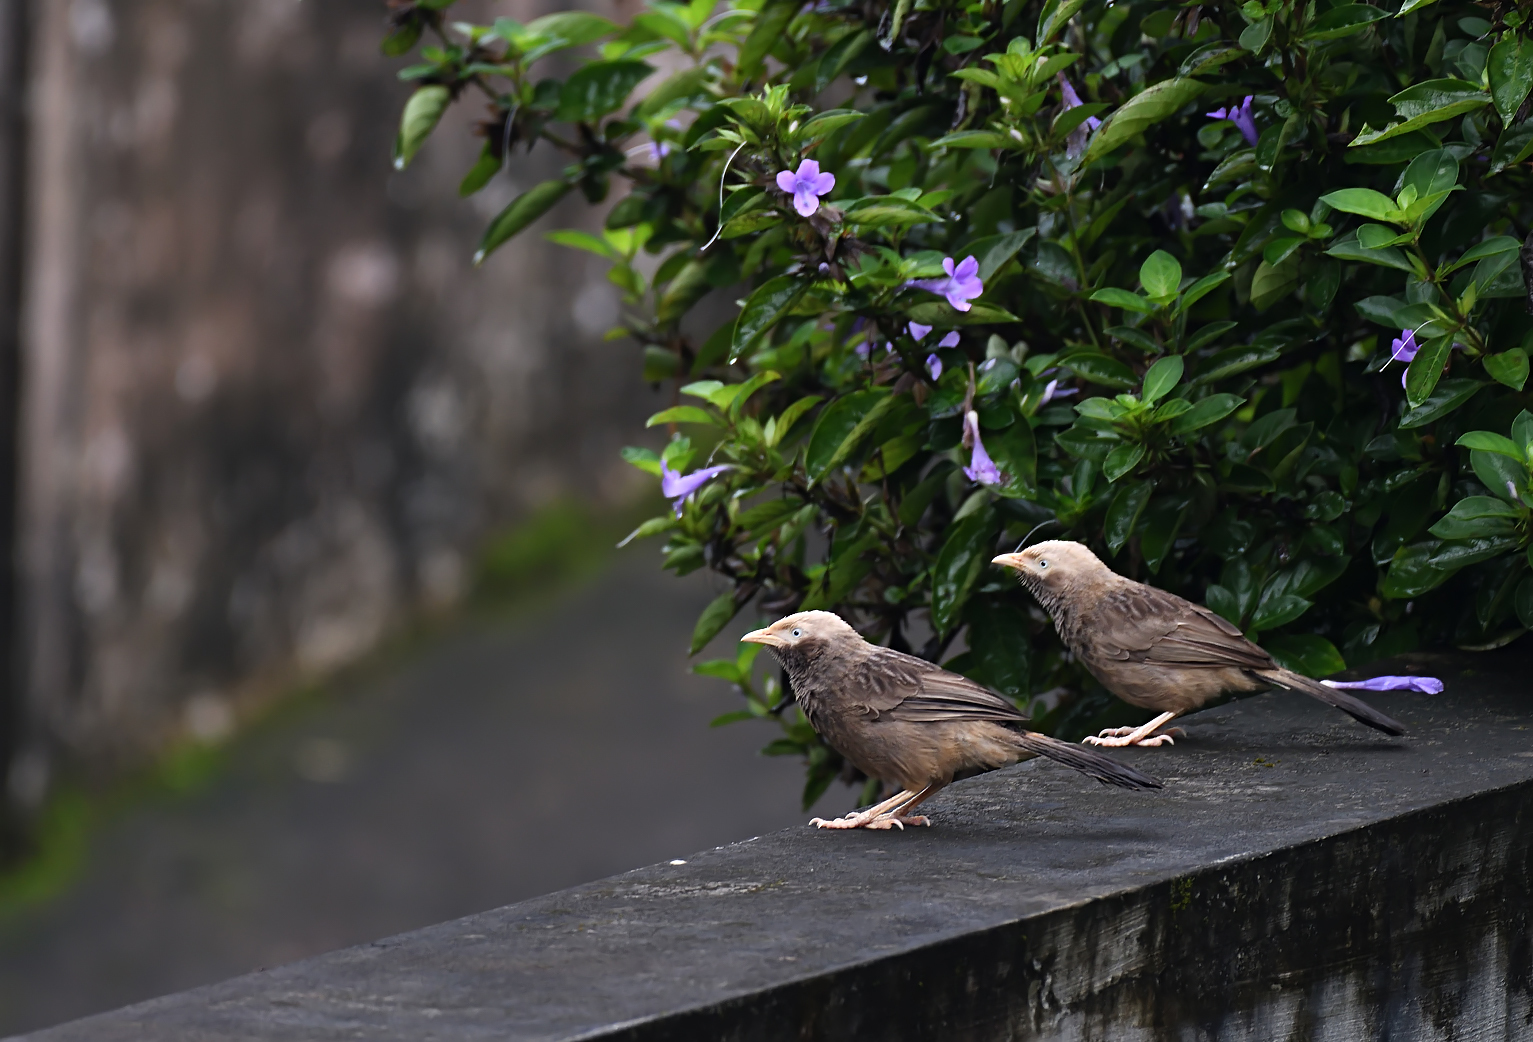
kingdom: Animalia
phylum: Chordata
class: Aves
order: Passeriformes
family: Leiothrichidae
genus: Turdoides
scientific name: Turdoides affinis
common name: Yellow-billed babbler
